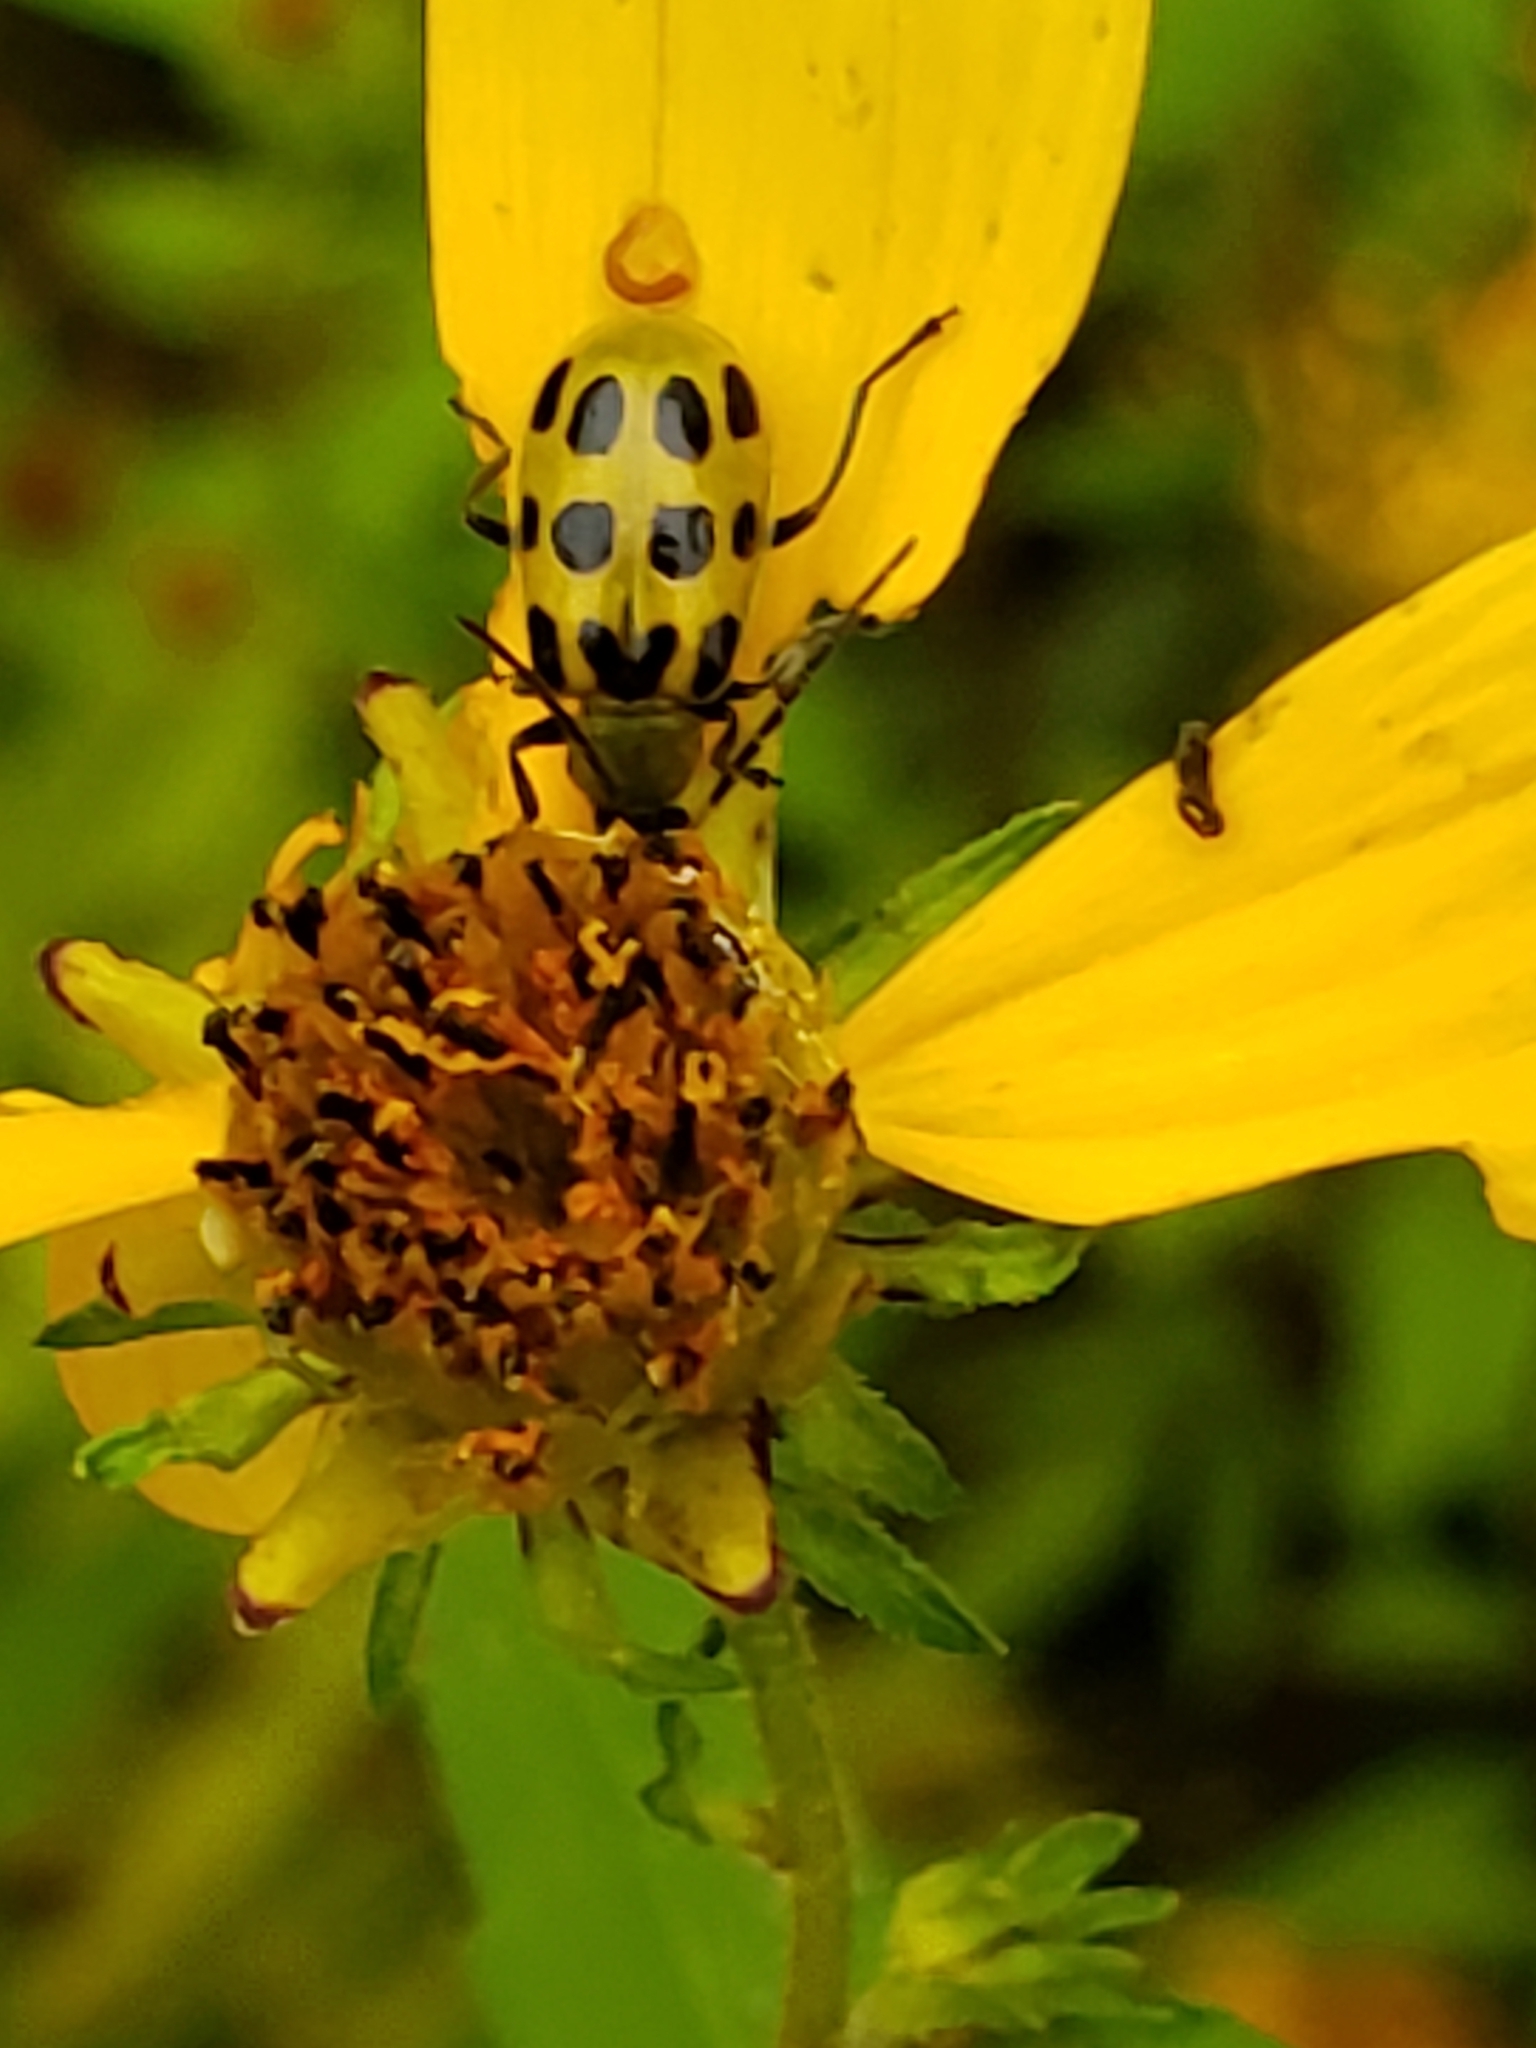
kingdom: Animalia
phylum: Arthropoda
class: Insecta
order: Coleoptera
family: Chrysomelidae
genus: Diabrotica
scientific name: Diabrotica undecimpunctata
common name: Spotted cucumber beetle
